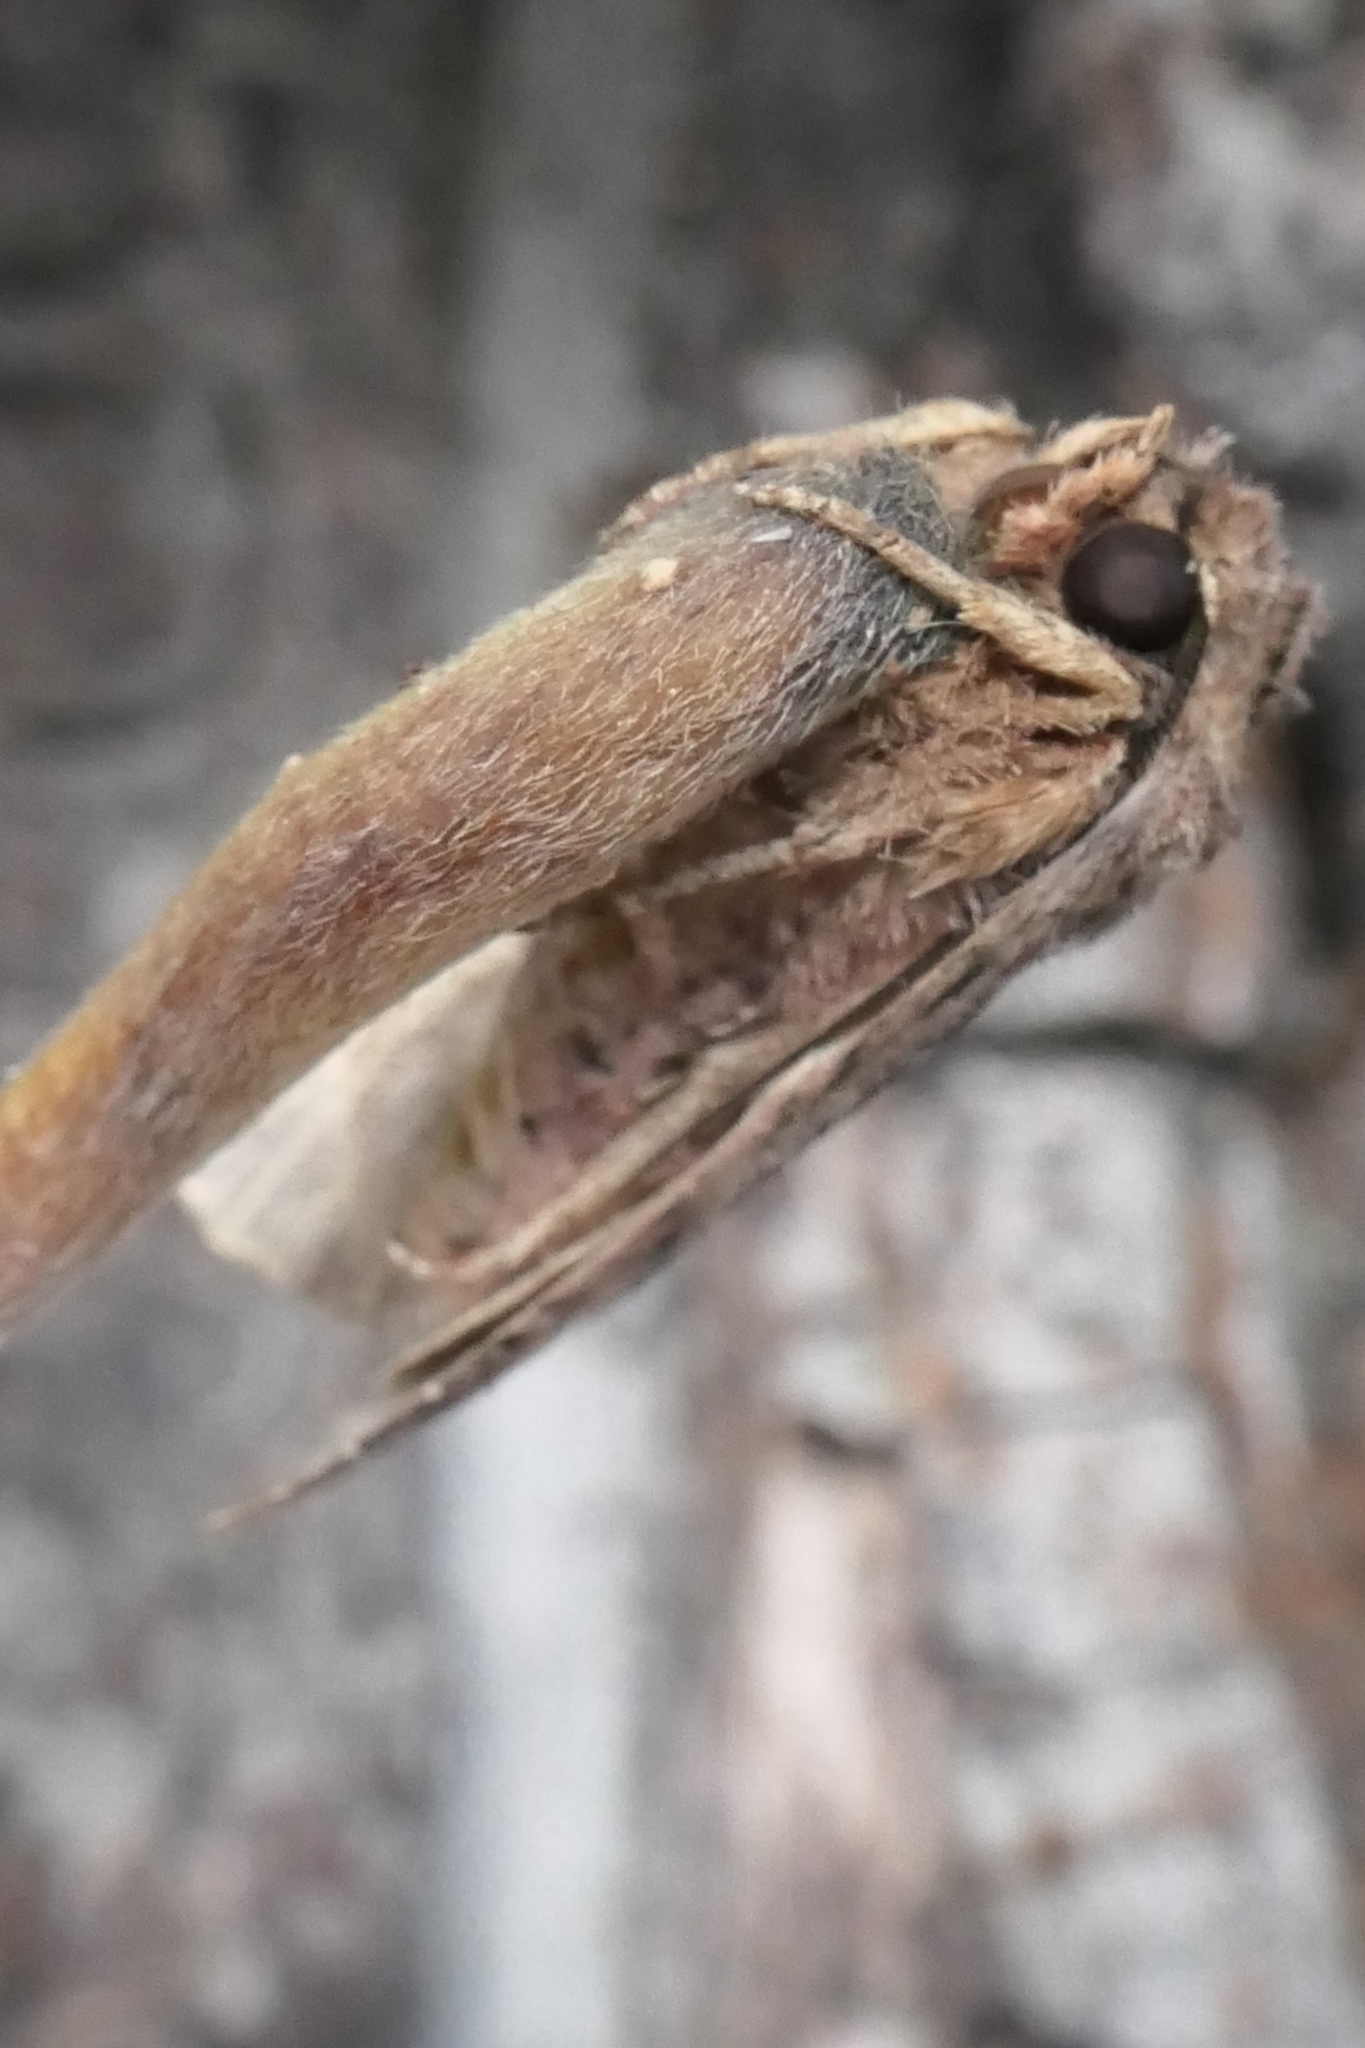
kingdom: Animalia
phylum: Arthropoda
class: Insecta
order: Lepidoptera
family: Noctuidae
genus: Ichneutica
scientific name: Ichneutica mutans
